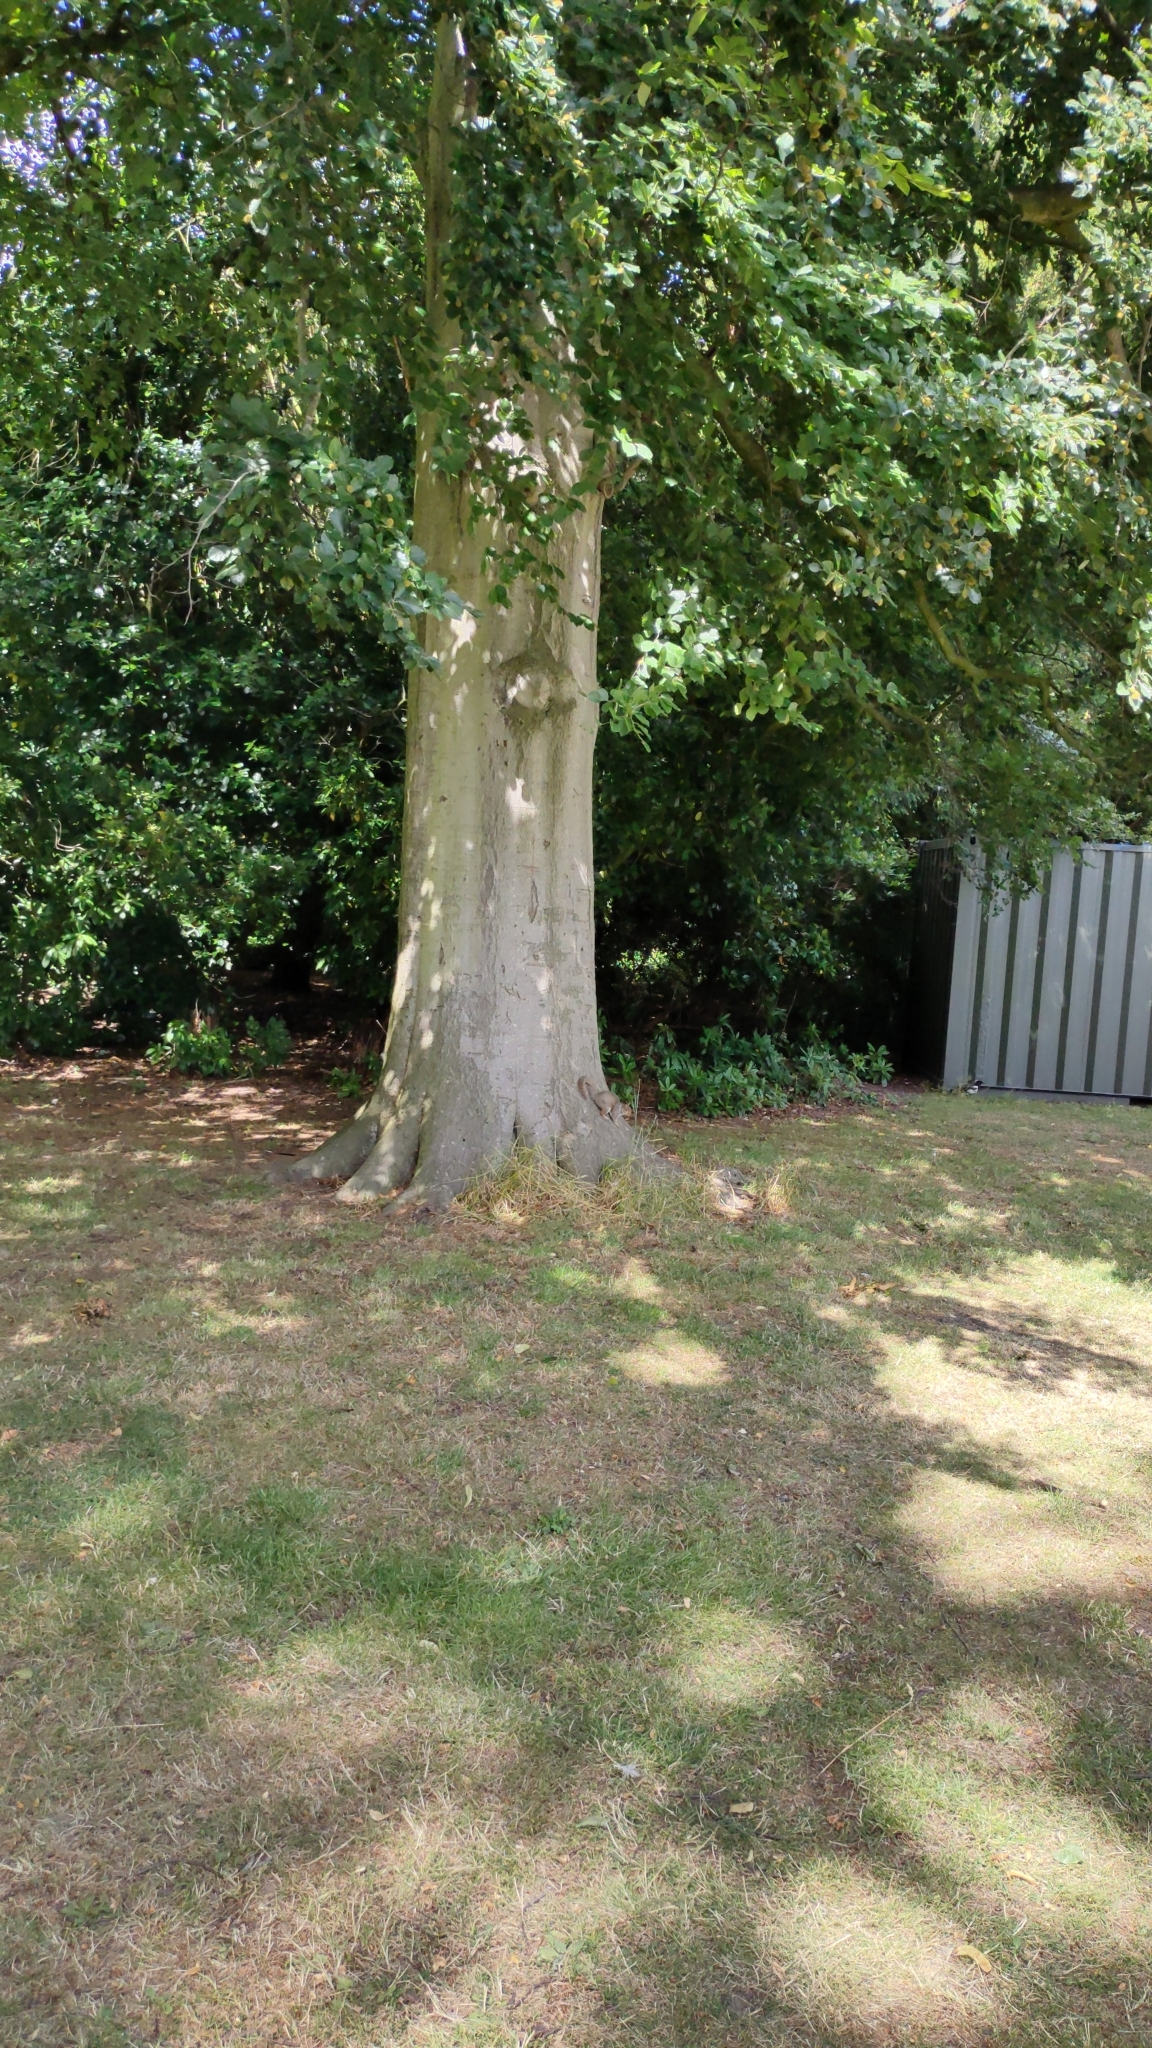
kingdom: Animalia
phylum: Chordata
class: Mammalia
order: Rodentia
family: Sciuridae
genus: Sciurus
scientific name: Sciurus carolinensis
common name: Eastern gray squirrel
